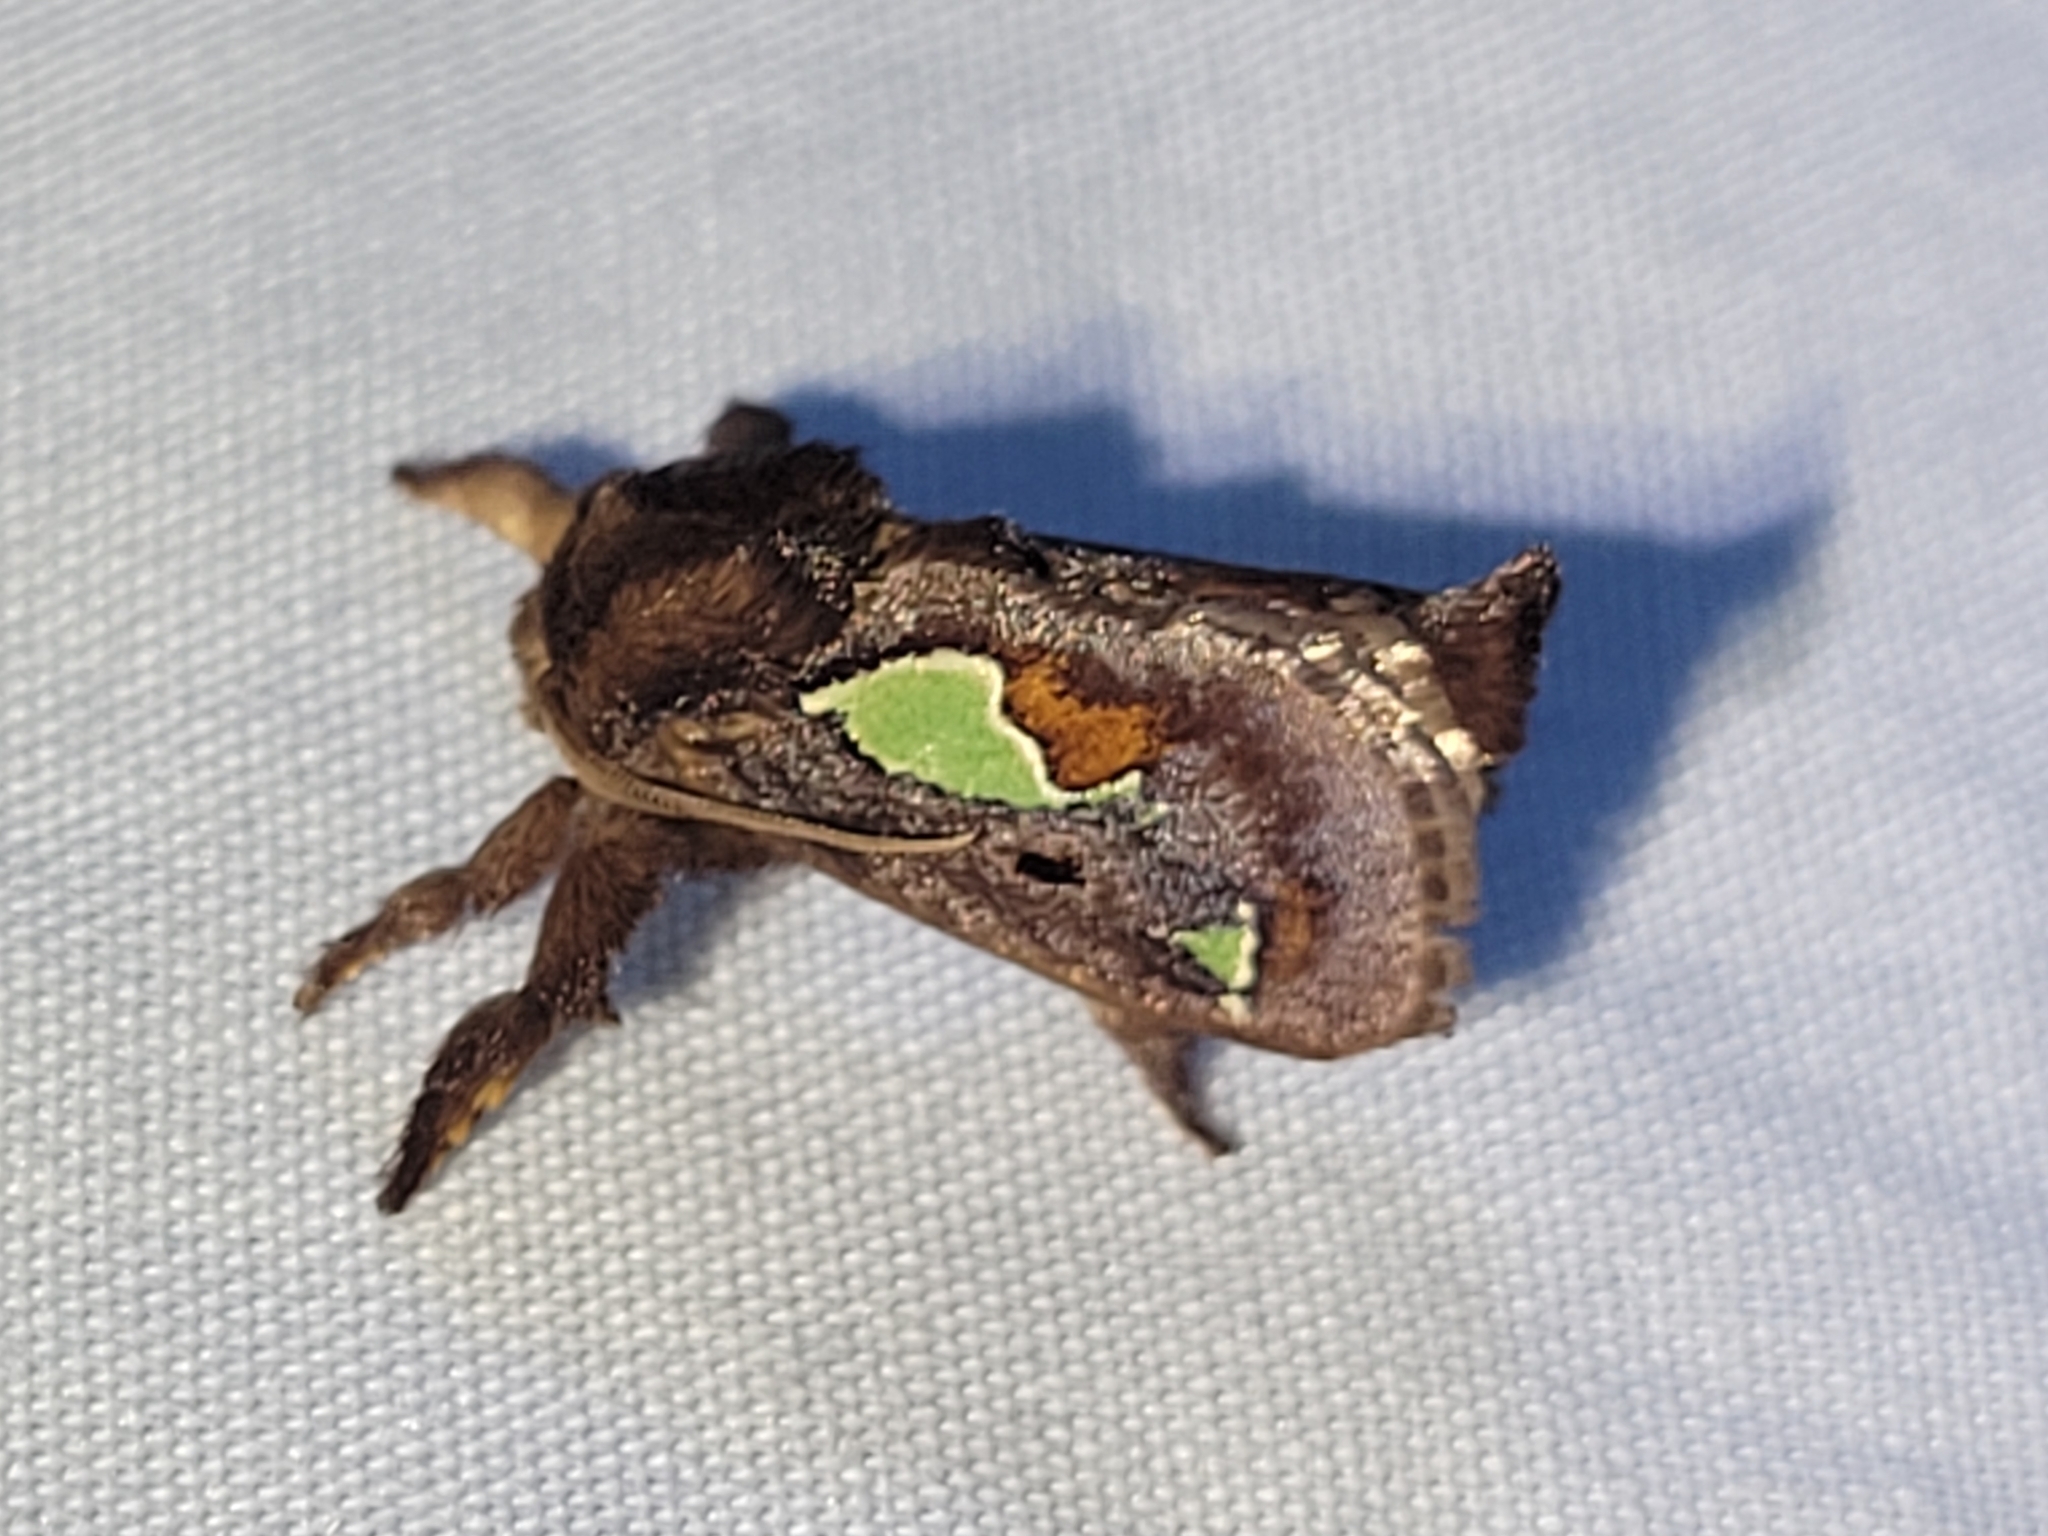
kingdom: Animalia
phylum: Arthropoda
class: Insecta
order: Lepidoptera
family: Limacodidae
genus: Euclea
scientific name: Euclea delphinii
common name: Spiny oak-slug moth
